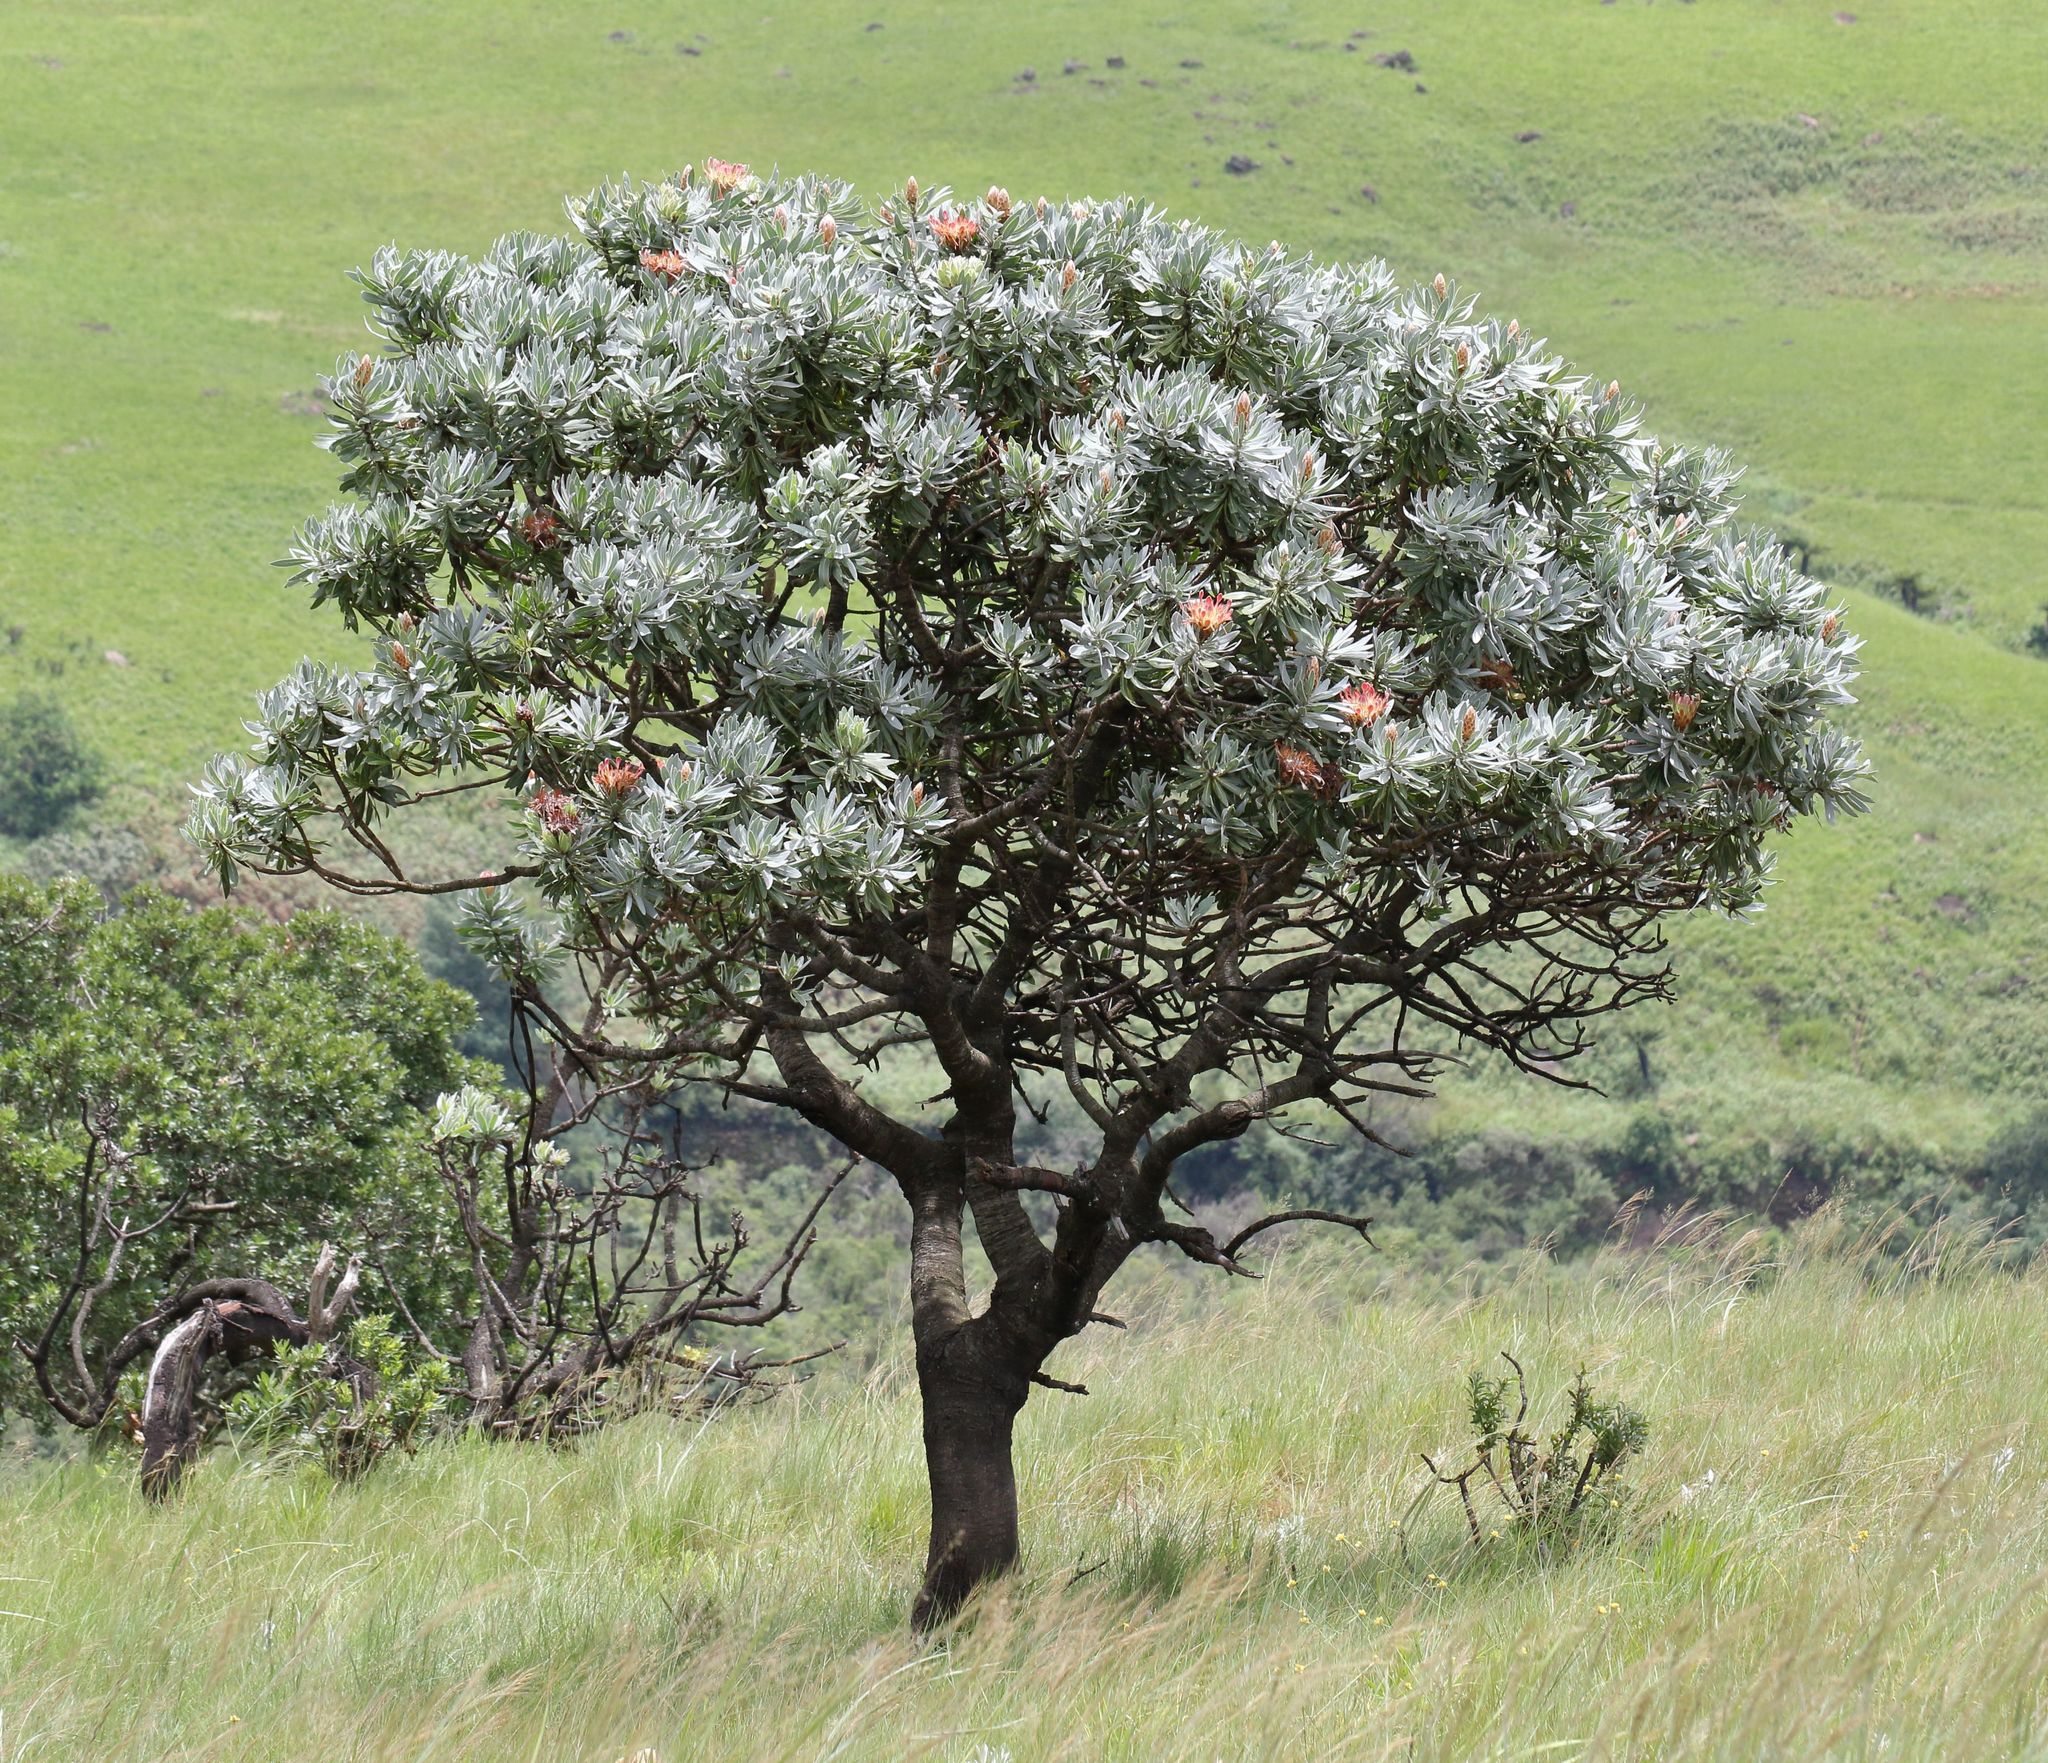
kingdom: Plantae
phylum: Tracheophyta
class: Magnoliopsida
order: Proteales
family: Proteaceae
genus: Protea
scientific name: Protea roupelliae
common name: Silver sugarbush
